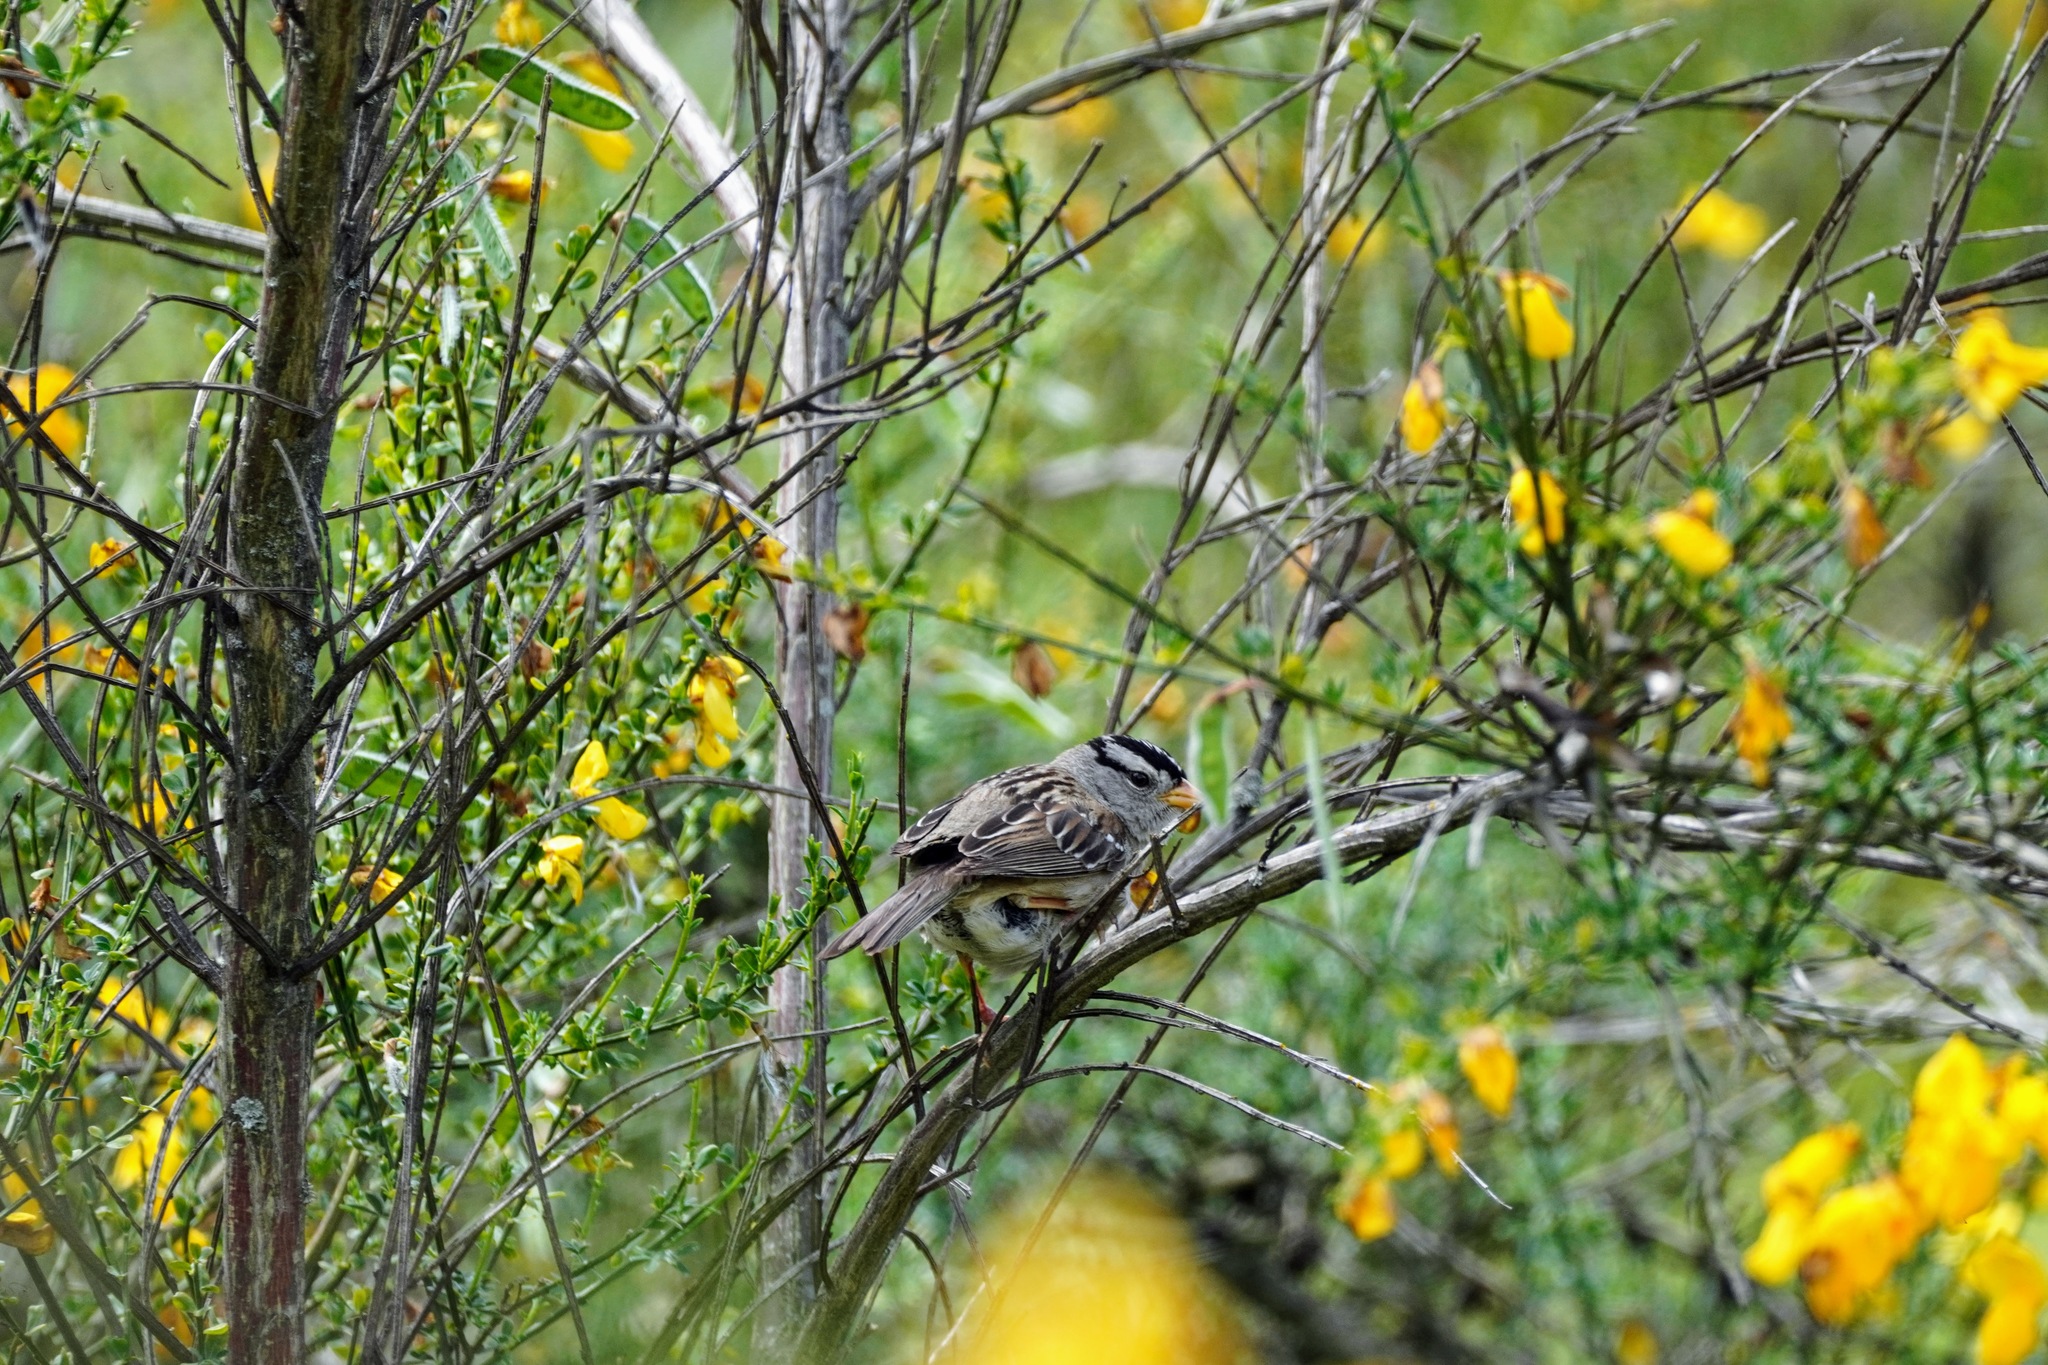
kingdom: Animalia
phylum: Chordata
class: Aves
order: Passeriformes
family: Passerellidae
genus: Zonotrichia
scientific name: Zonotrichia leucophrys
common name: White-crowned sparrow
